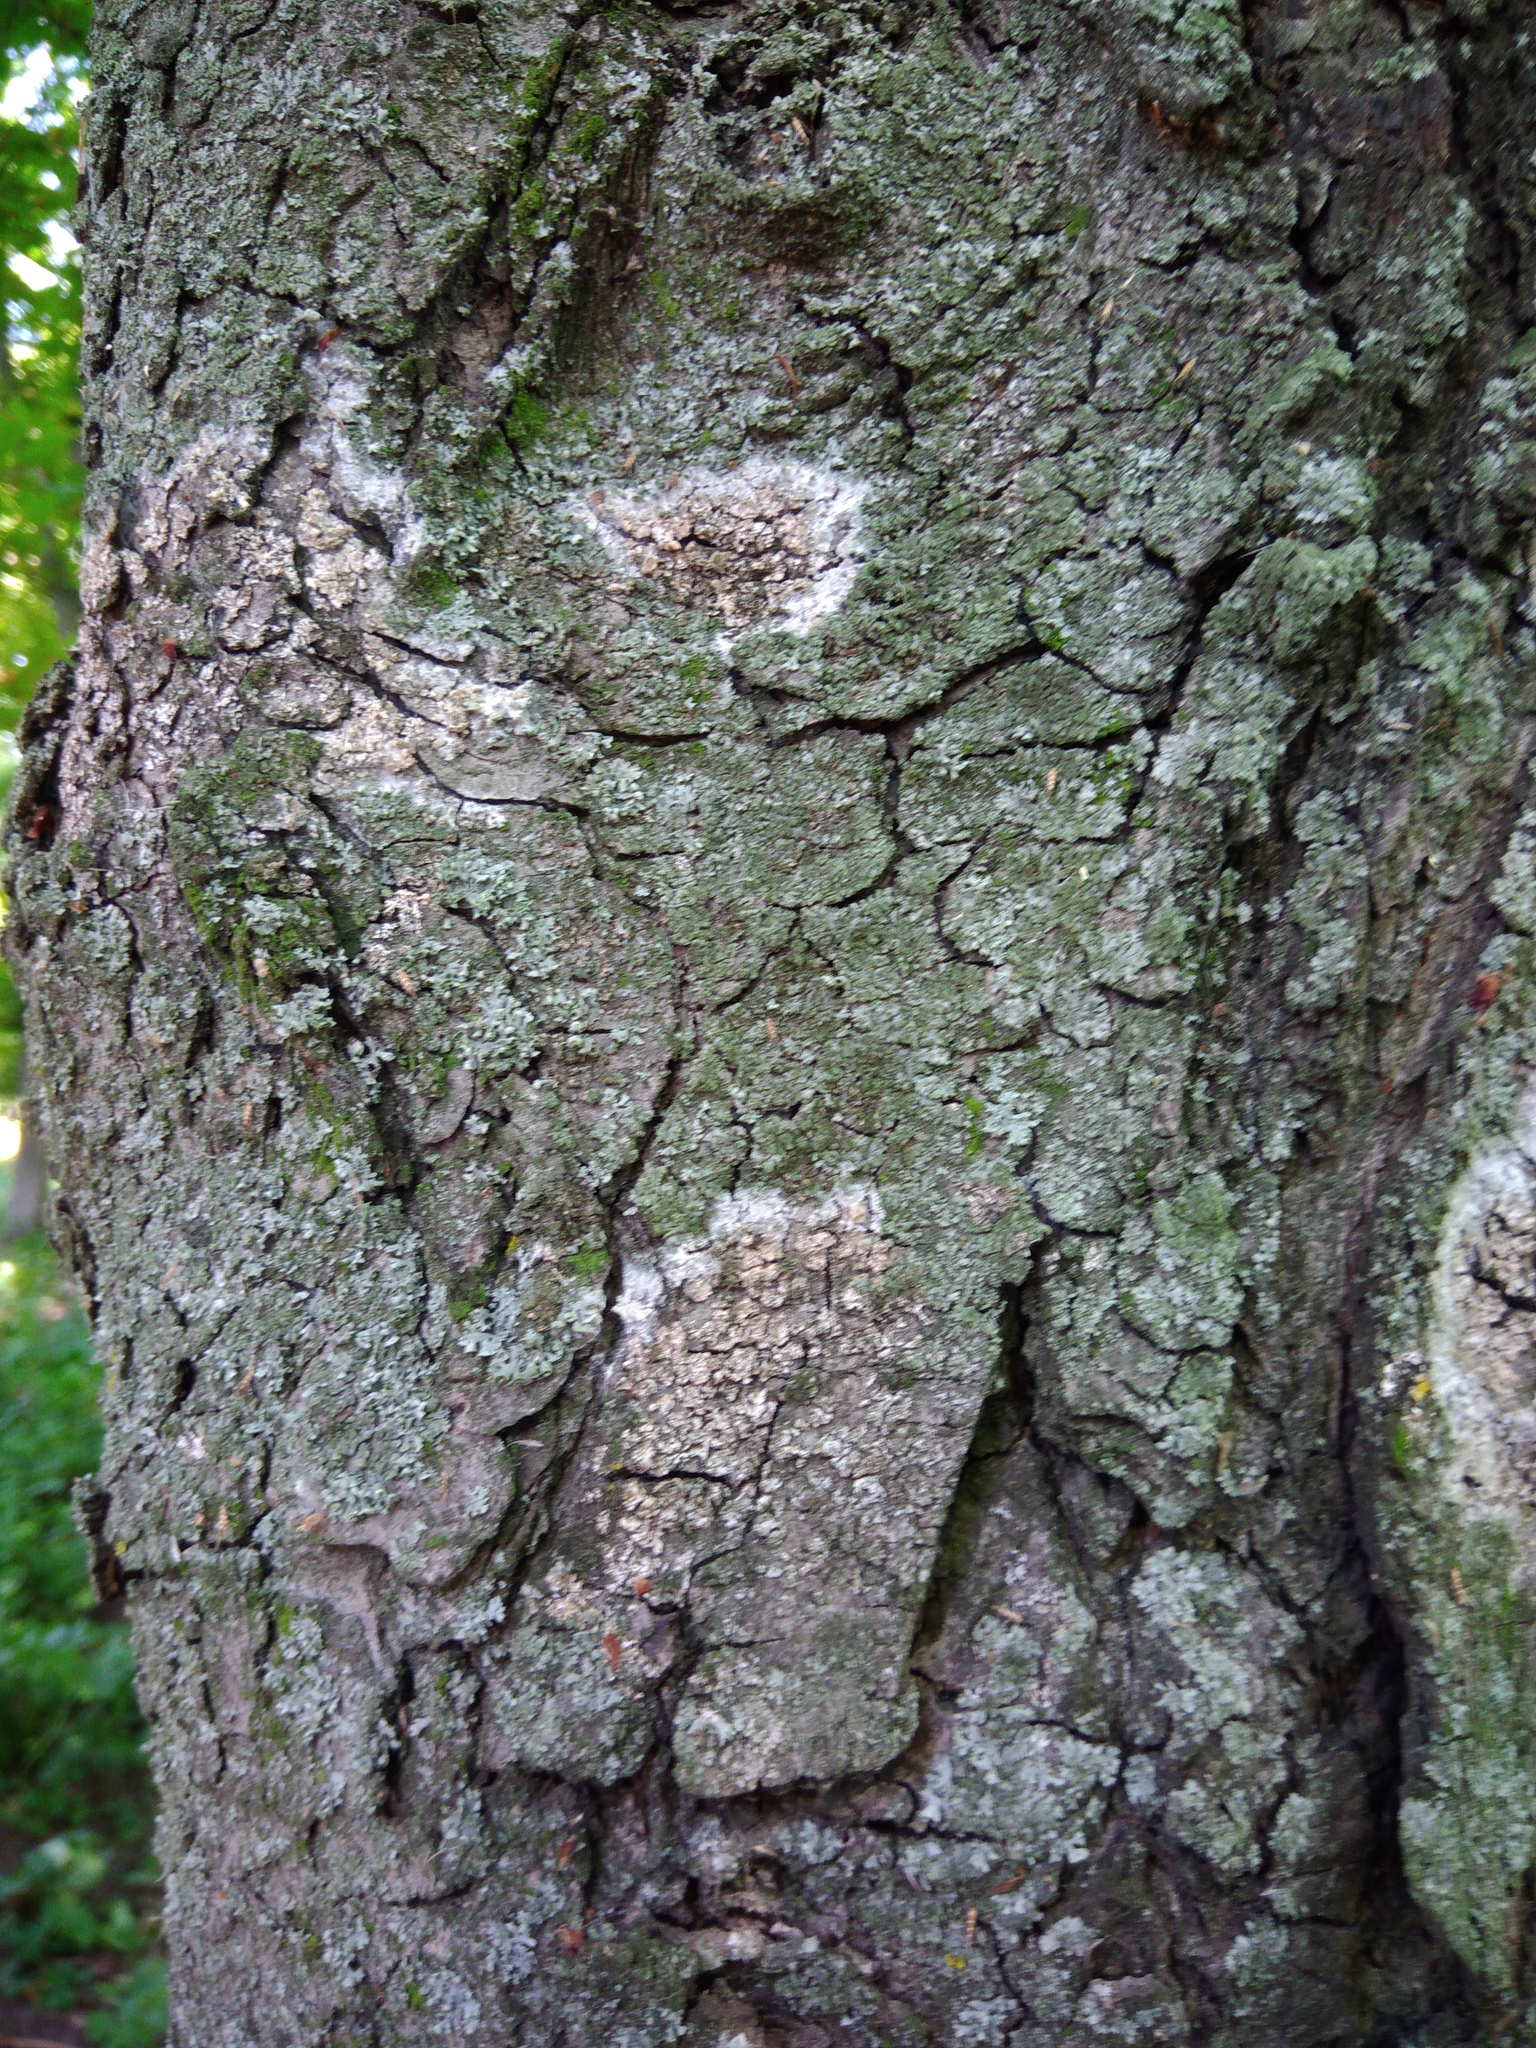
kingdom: Fungi
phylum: Basidiomycota
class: Agaricomycetes
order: Atheliales
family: Atheliaceae
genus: Athelia
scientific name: Athelia arachnoidea
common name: Candelabra duster
